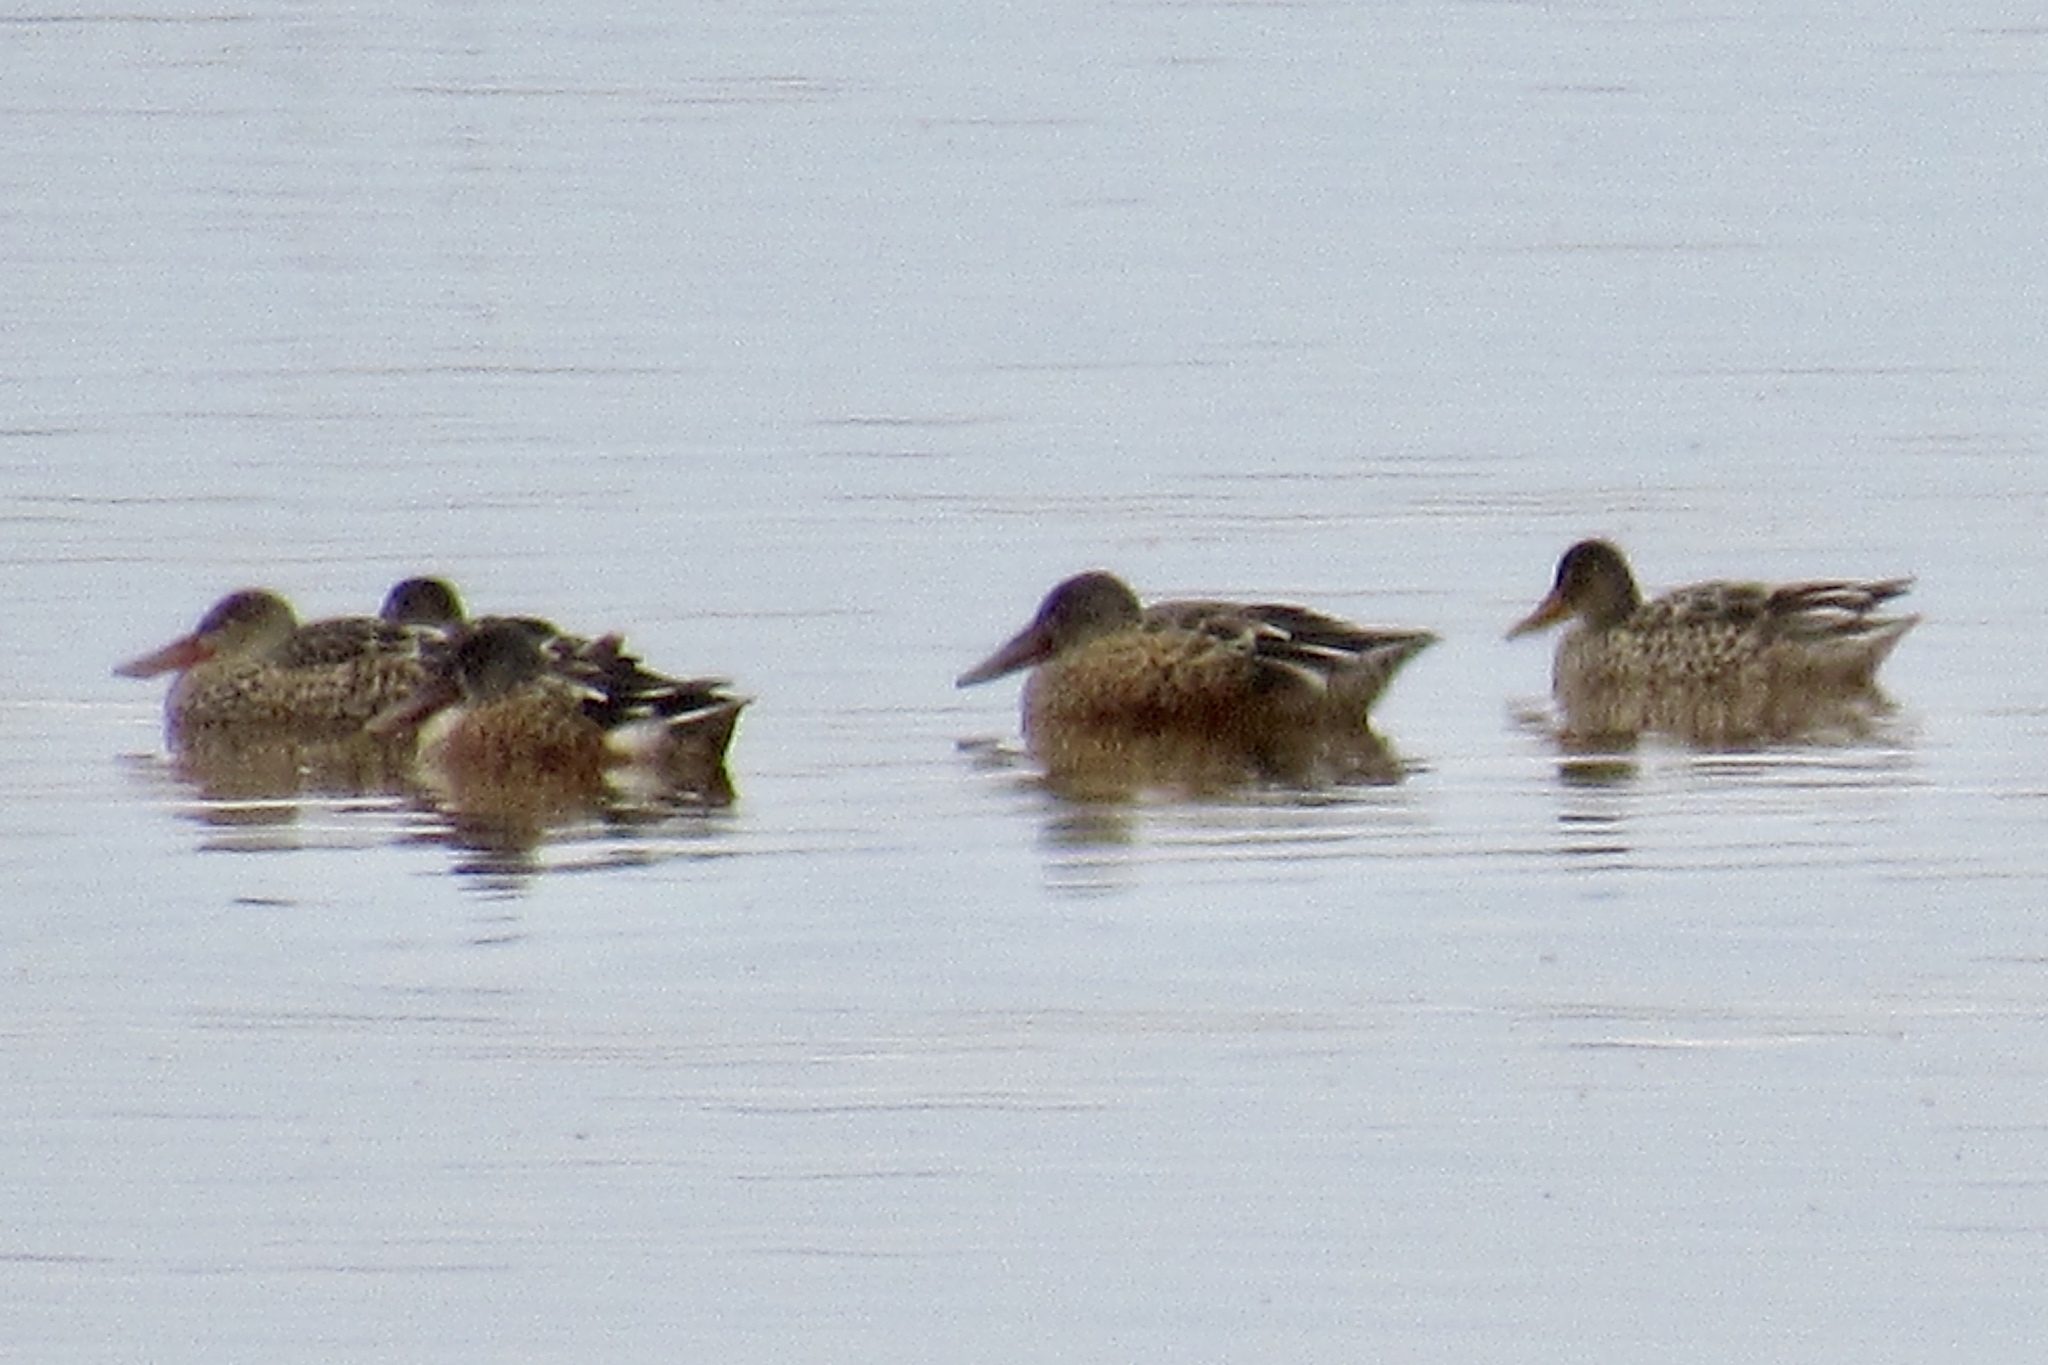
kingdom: Animalia
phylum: Chordata
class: Aves
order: Anseriformes
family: Anatidae
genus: Spatula
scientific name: Spatula clypeata
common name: Northern shoveler
